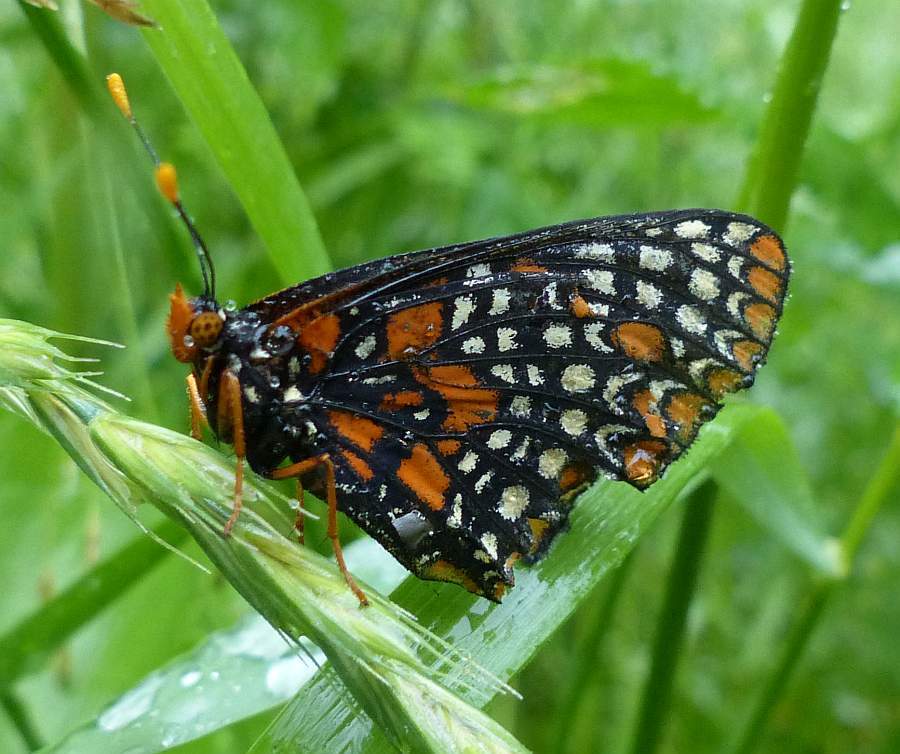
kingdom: Animalia
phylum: Arthropoda
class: Insecta
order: Lepidoptera
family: Nymphalidae
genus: Euphydryas
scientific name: Euphydryas phaeton
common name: Baltimore checkerspot
